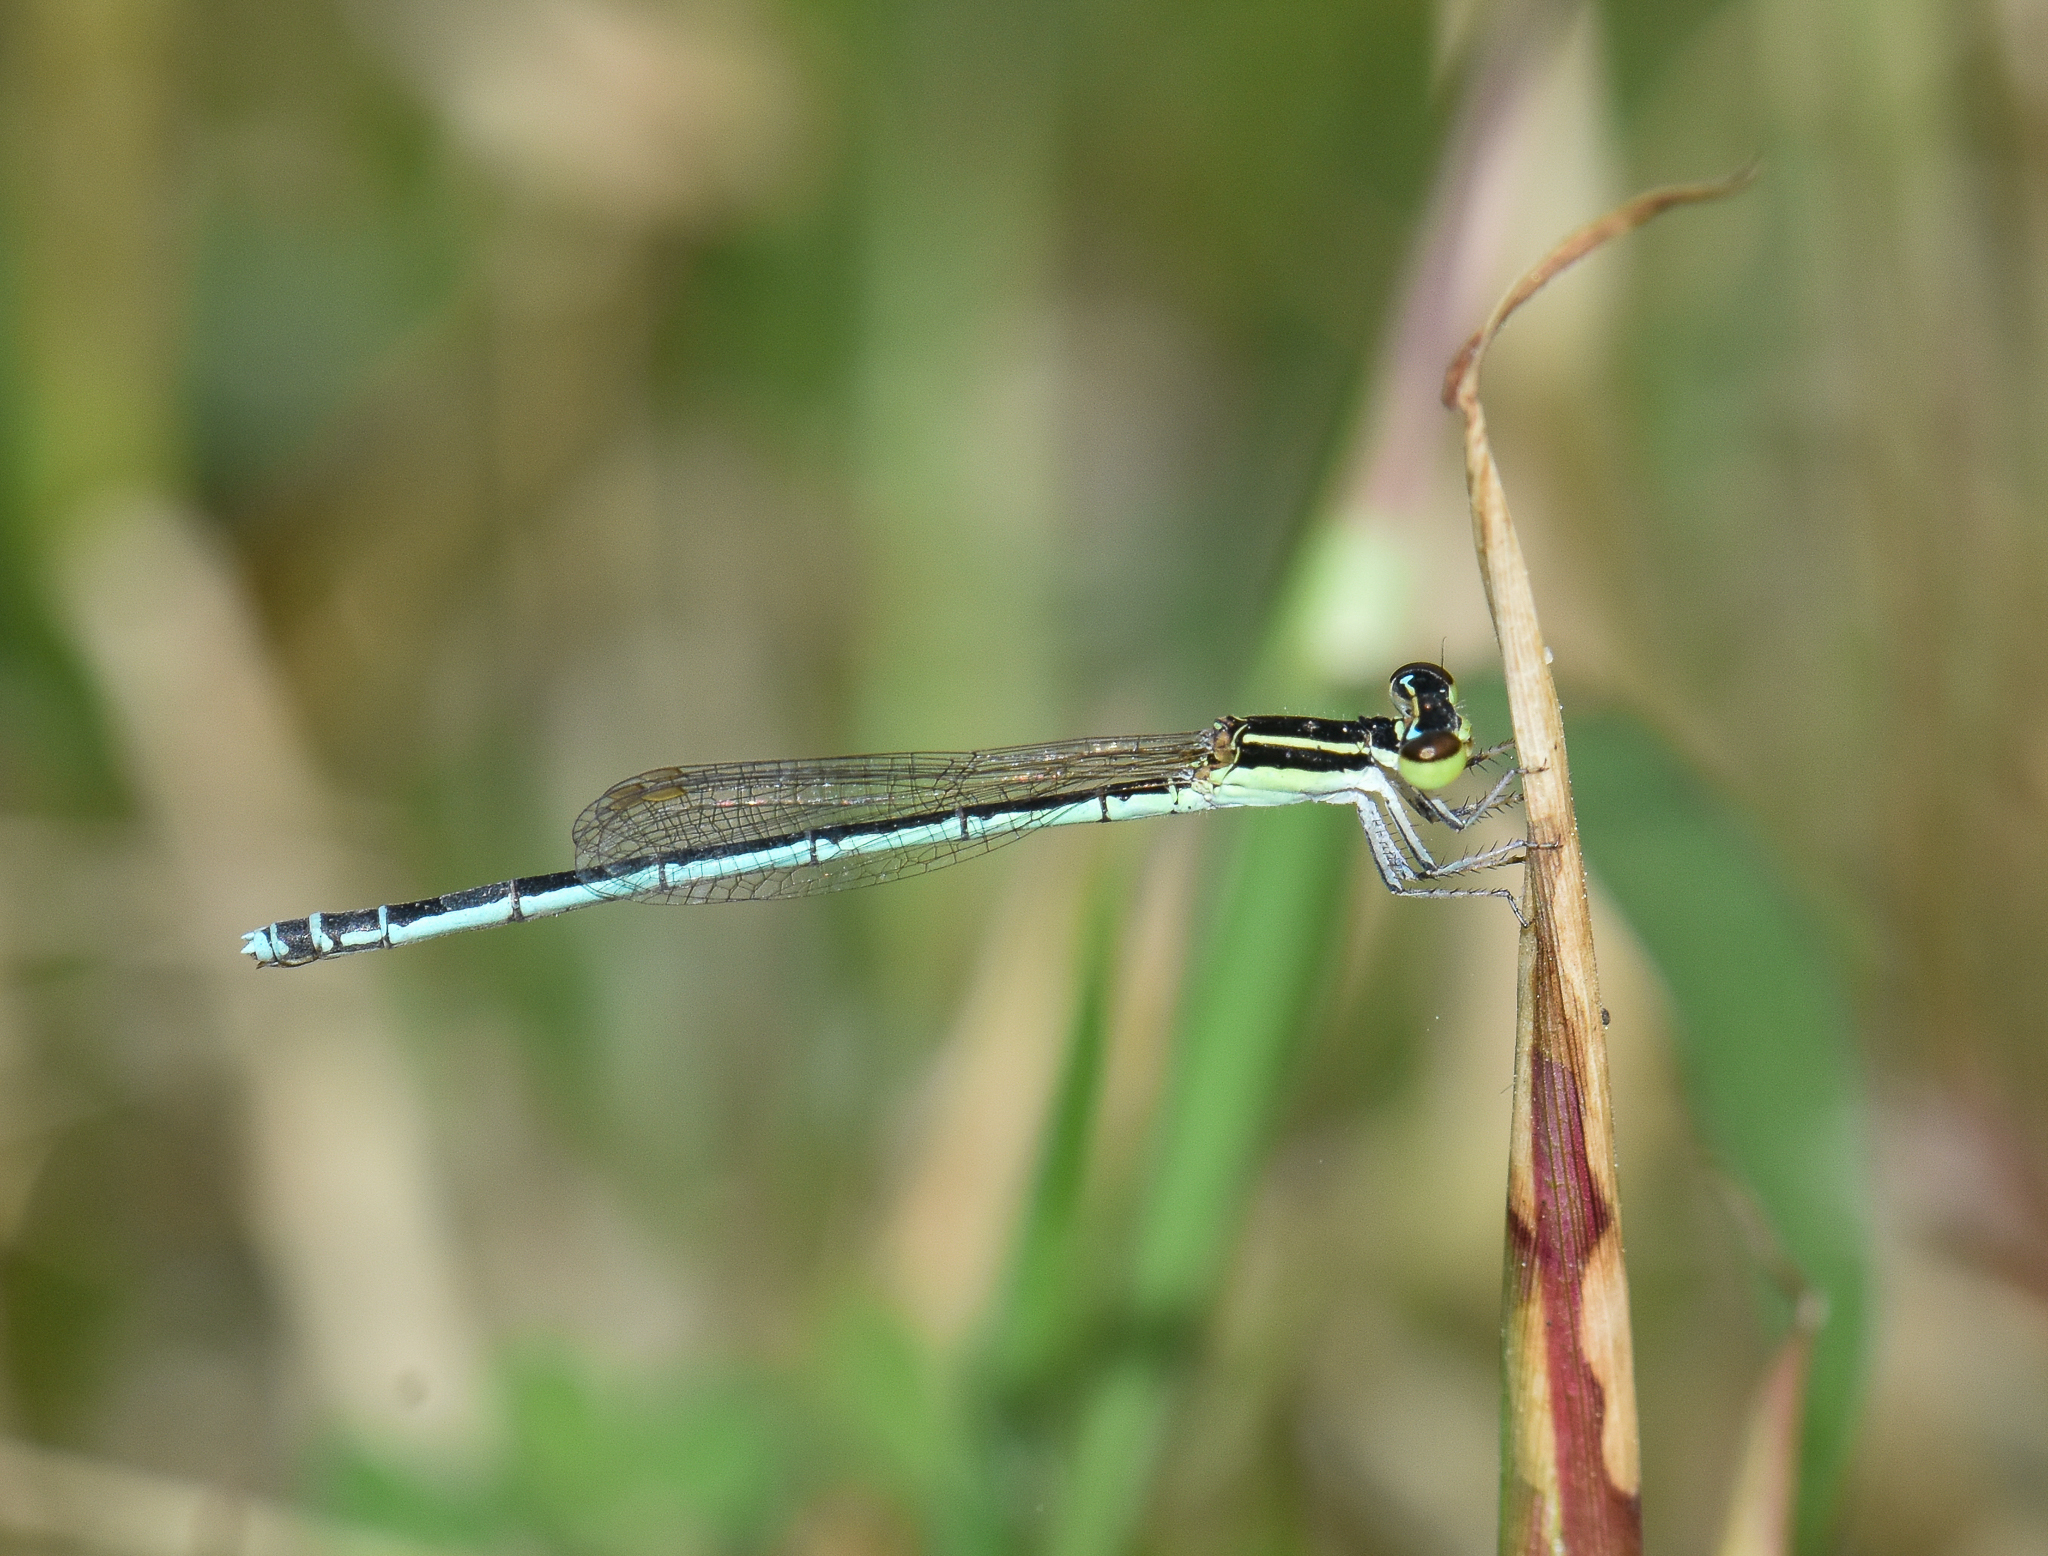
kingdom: Animalia
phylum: Arthropoda
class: Insecta
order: Odonata
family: Coenagrionidae
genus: Agriocnemis
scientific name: Agriocnemis lacteola
